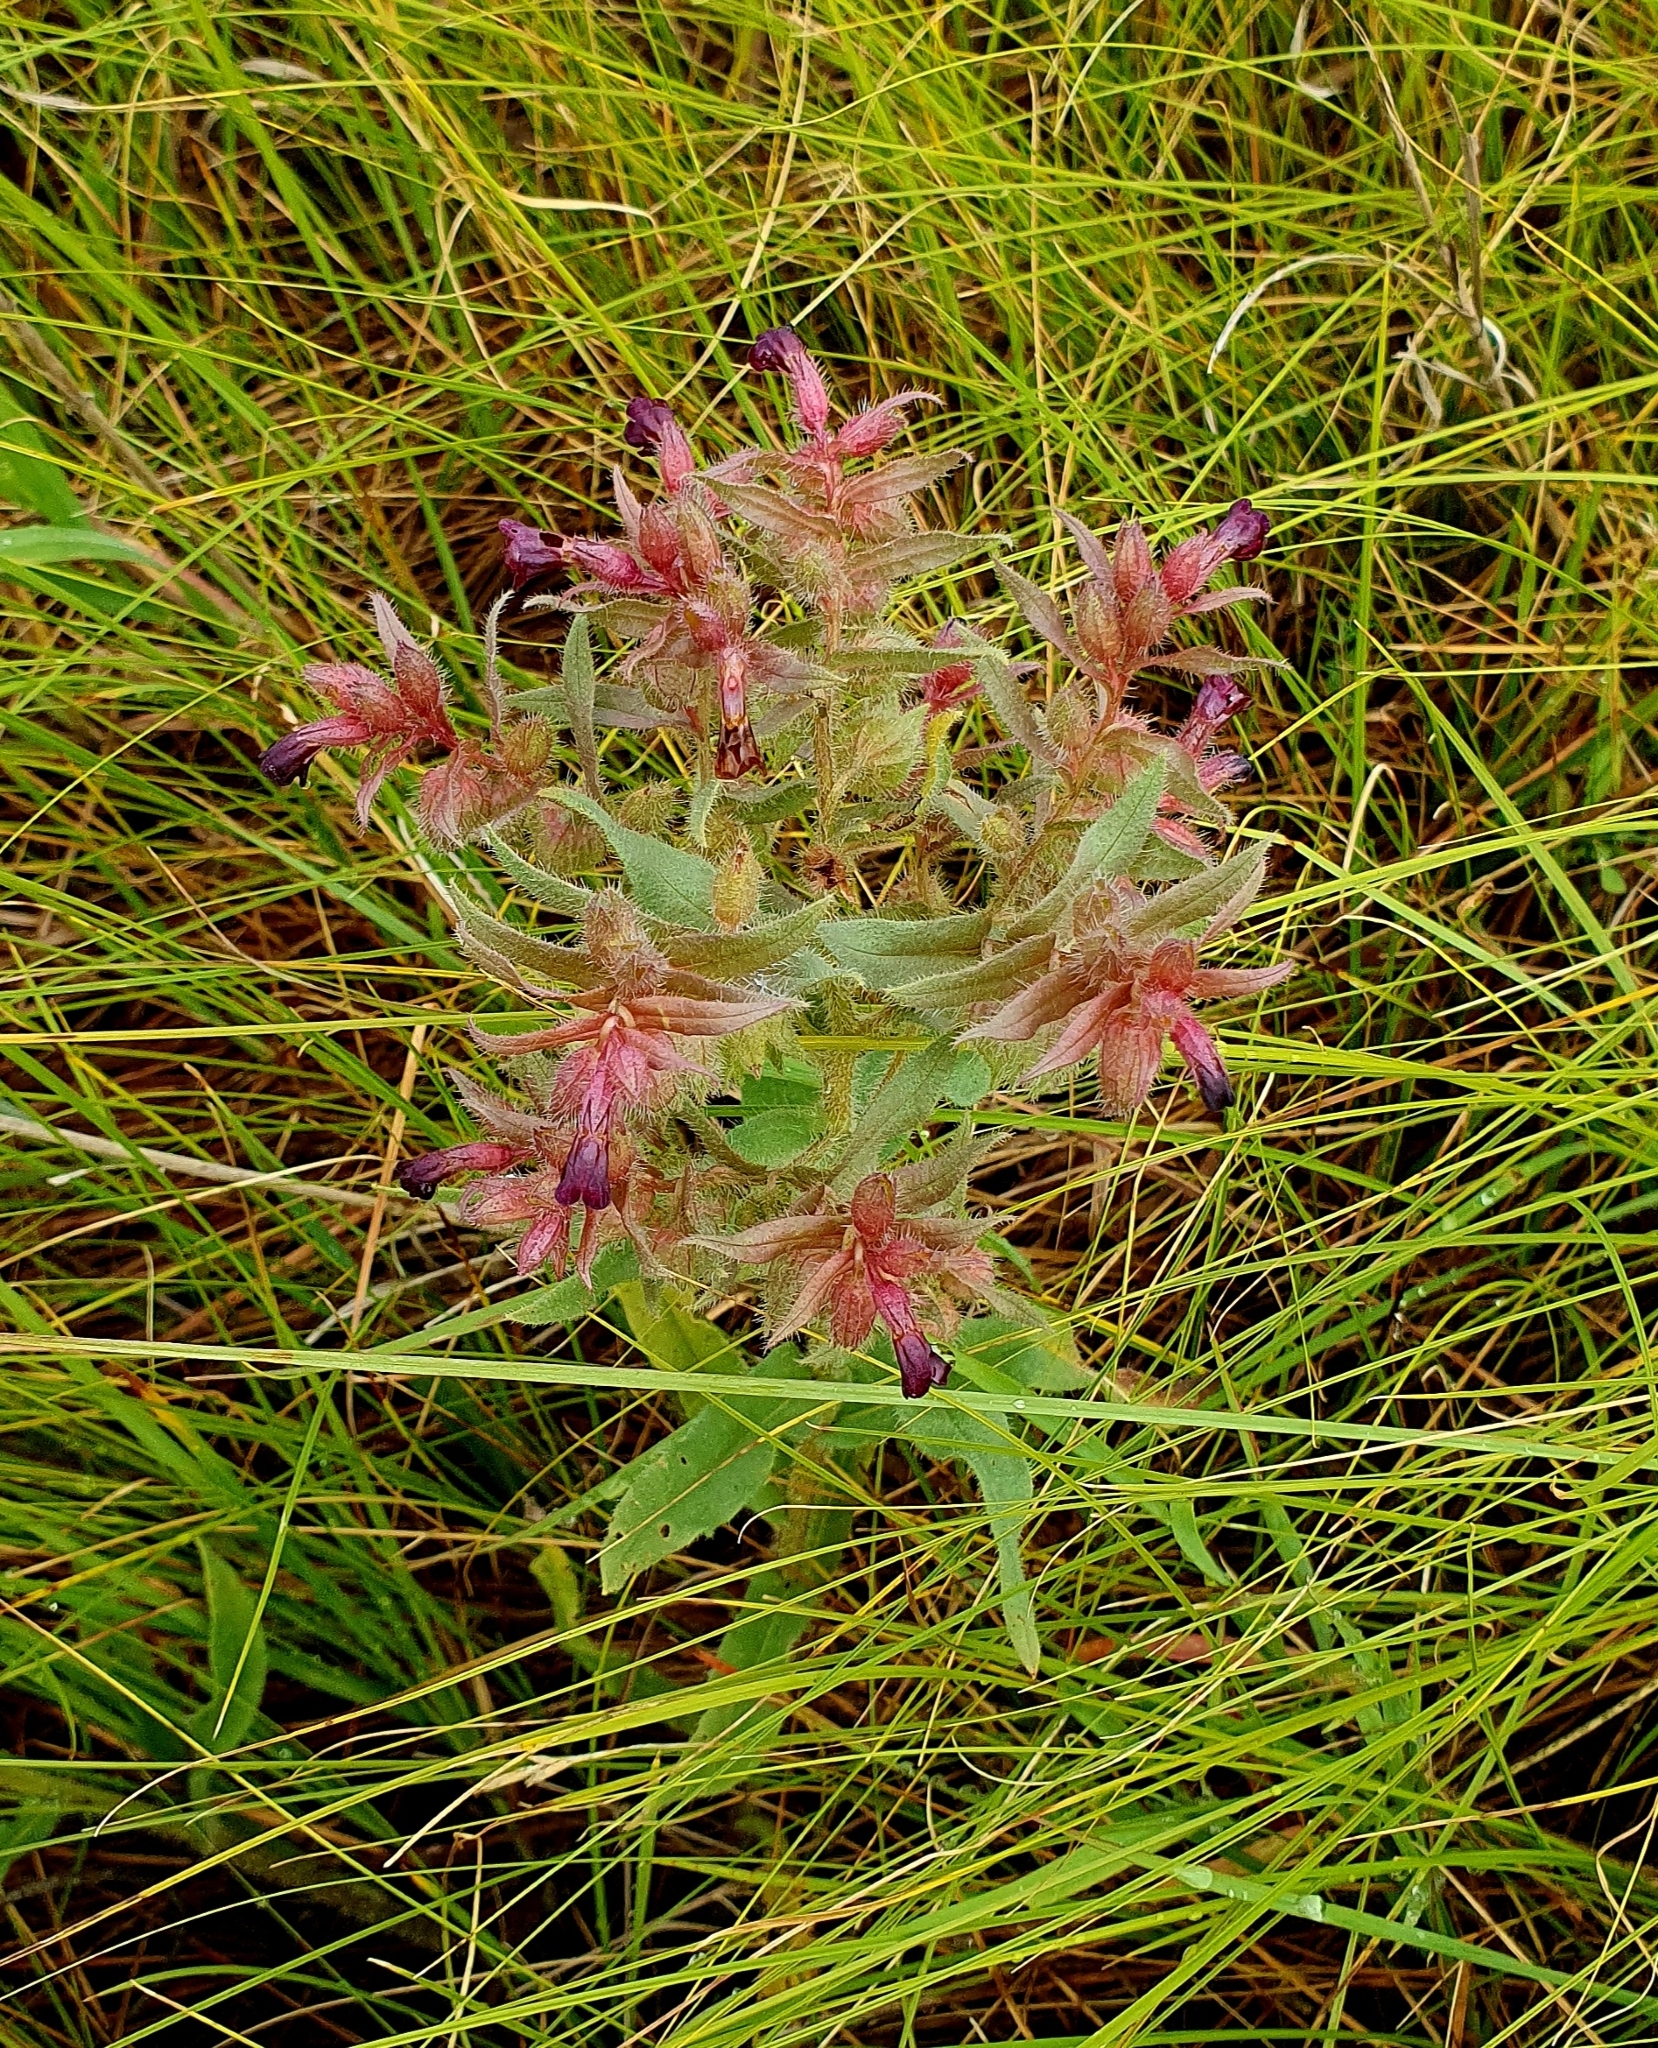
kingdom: Plantae
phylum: Tracheophyta
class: Magnoliopsida
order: Boraginales
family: Boraginaceae
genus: Nonea
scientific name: Nonea pulla
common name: Brown nonea
